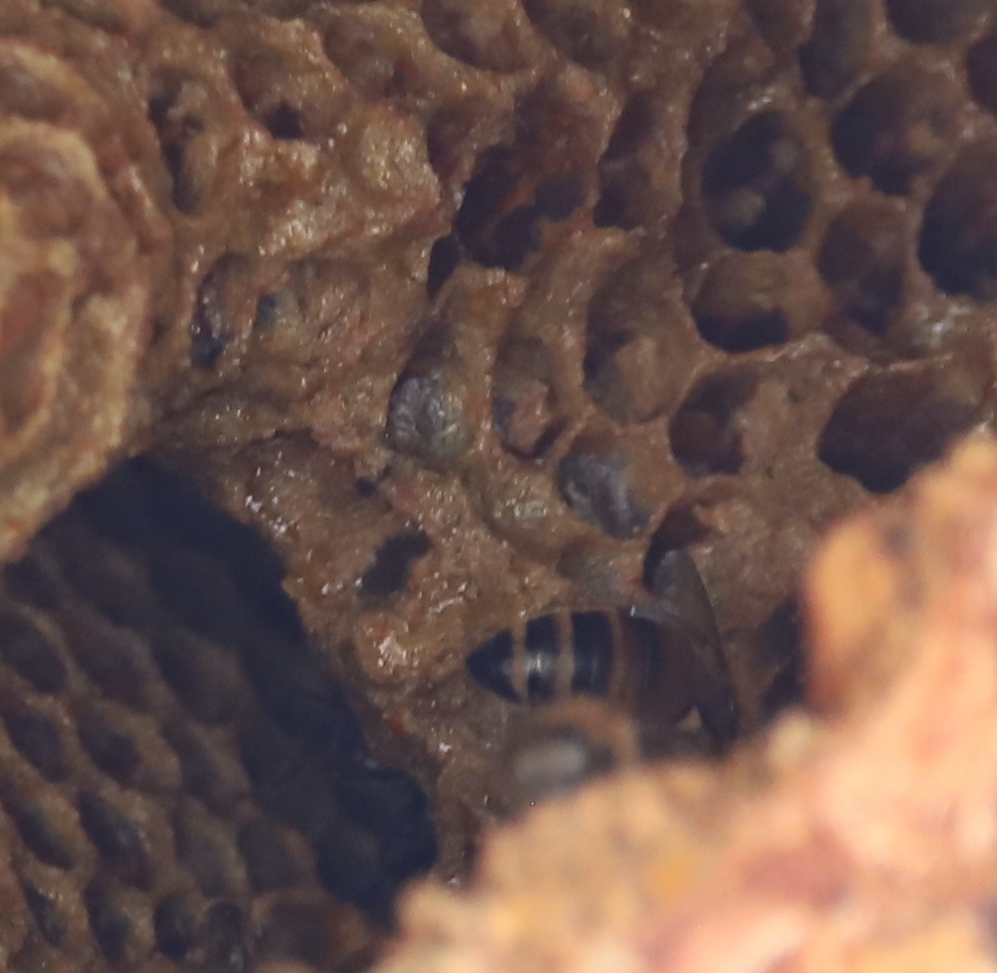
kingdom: Animalia
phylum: Arthropoda
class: Insecta
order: Hymenoptera
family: Apidae
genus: Apis
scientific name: Apis mellifera
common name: Honey bee
